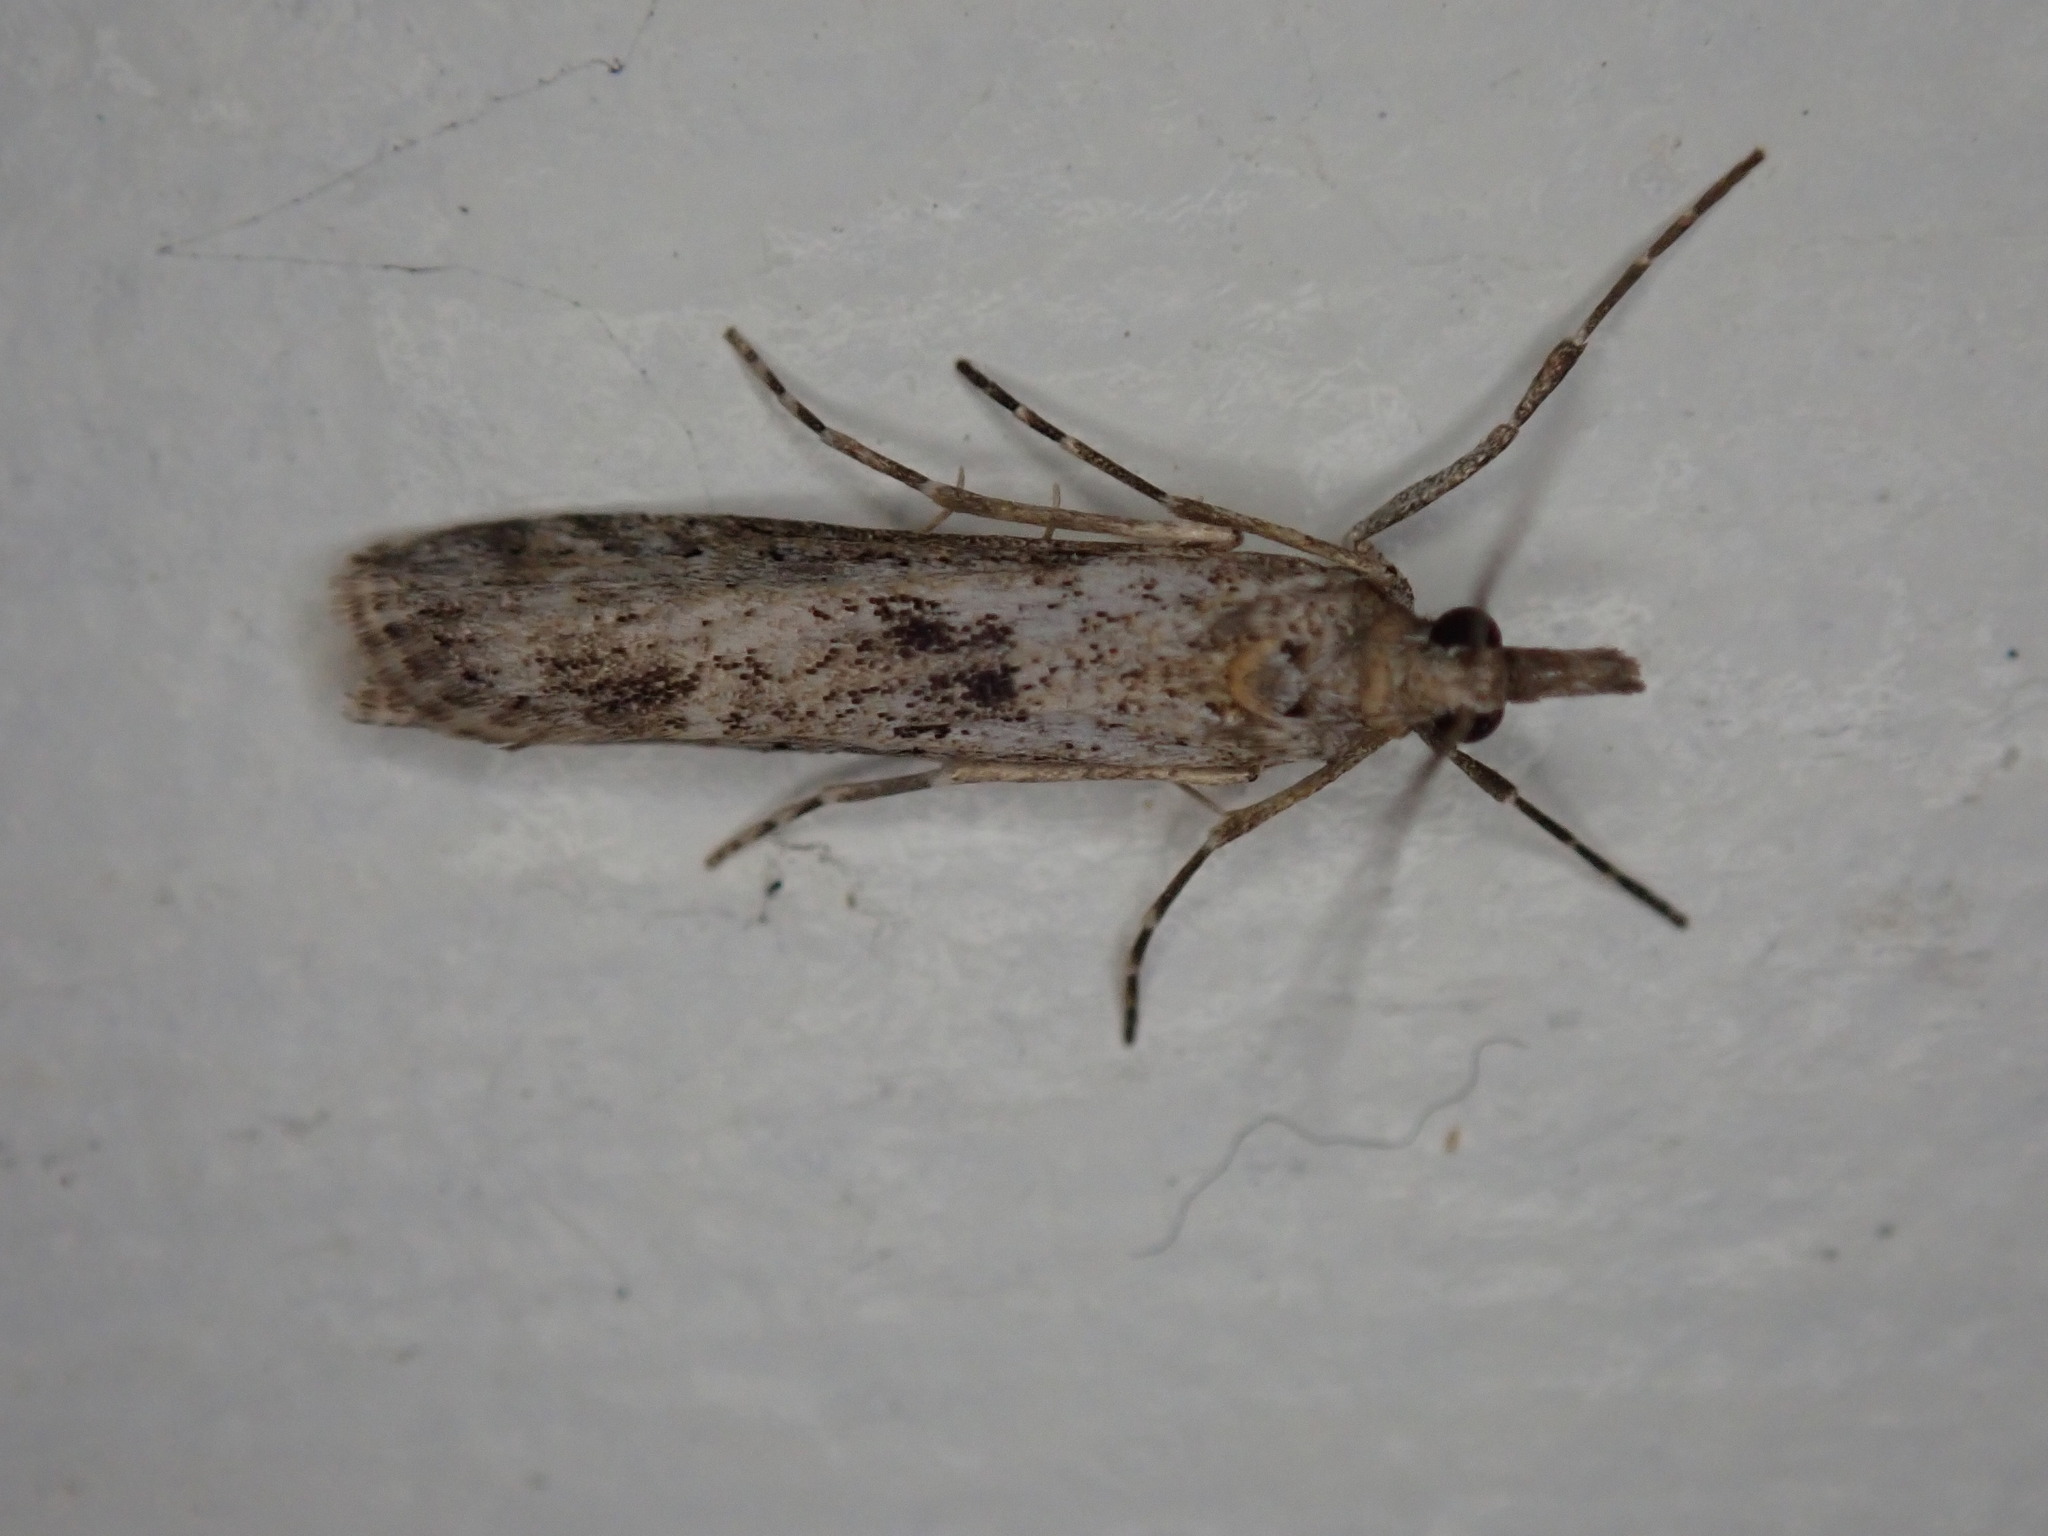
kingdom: Animalia
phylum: Arthropoda
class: Insecta
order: Lepidoptera
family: Crambidae
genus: Eudonia
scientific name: Eudonia leptalea
